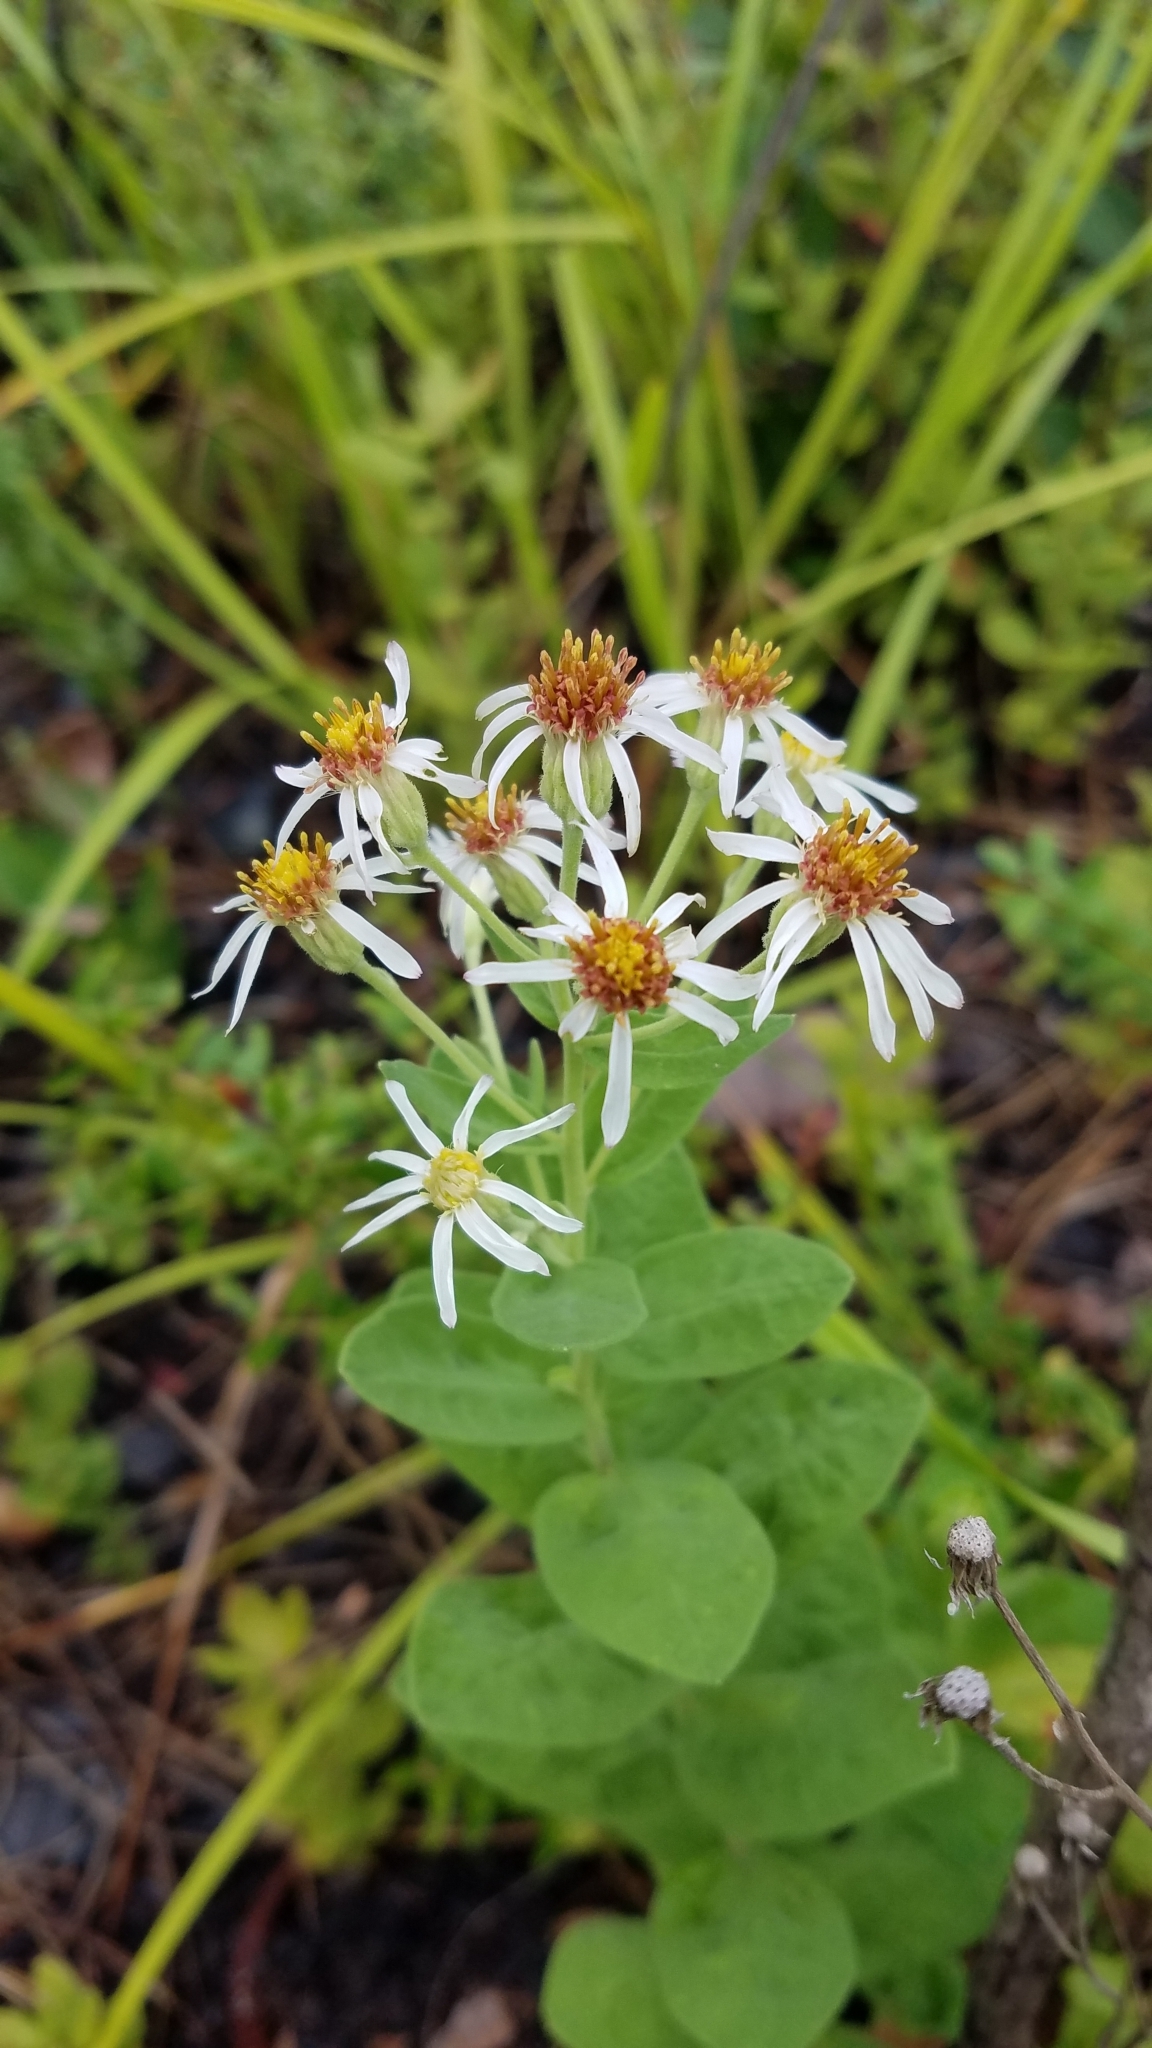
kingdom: Plantae
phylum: Tracheophyta
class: Magnoliopsida
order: Asterales
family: Asteraceae
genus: Oclemena
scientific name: Oclemena reticulata
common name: Pinebarren aster
